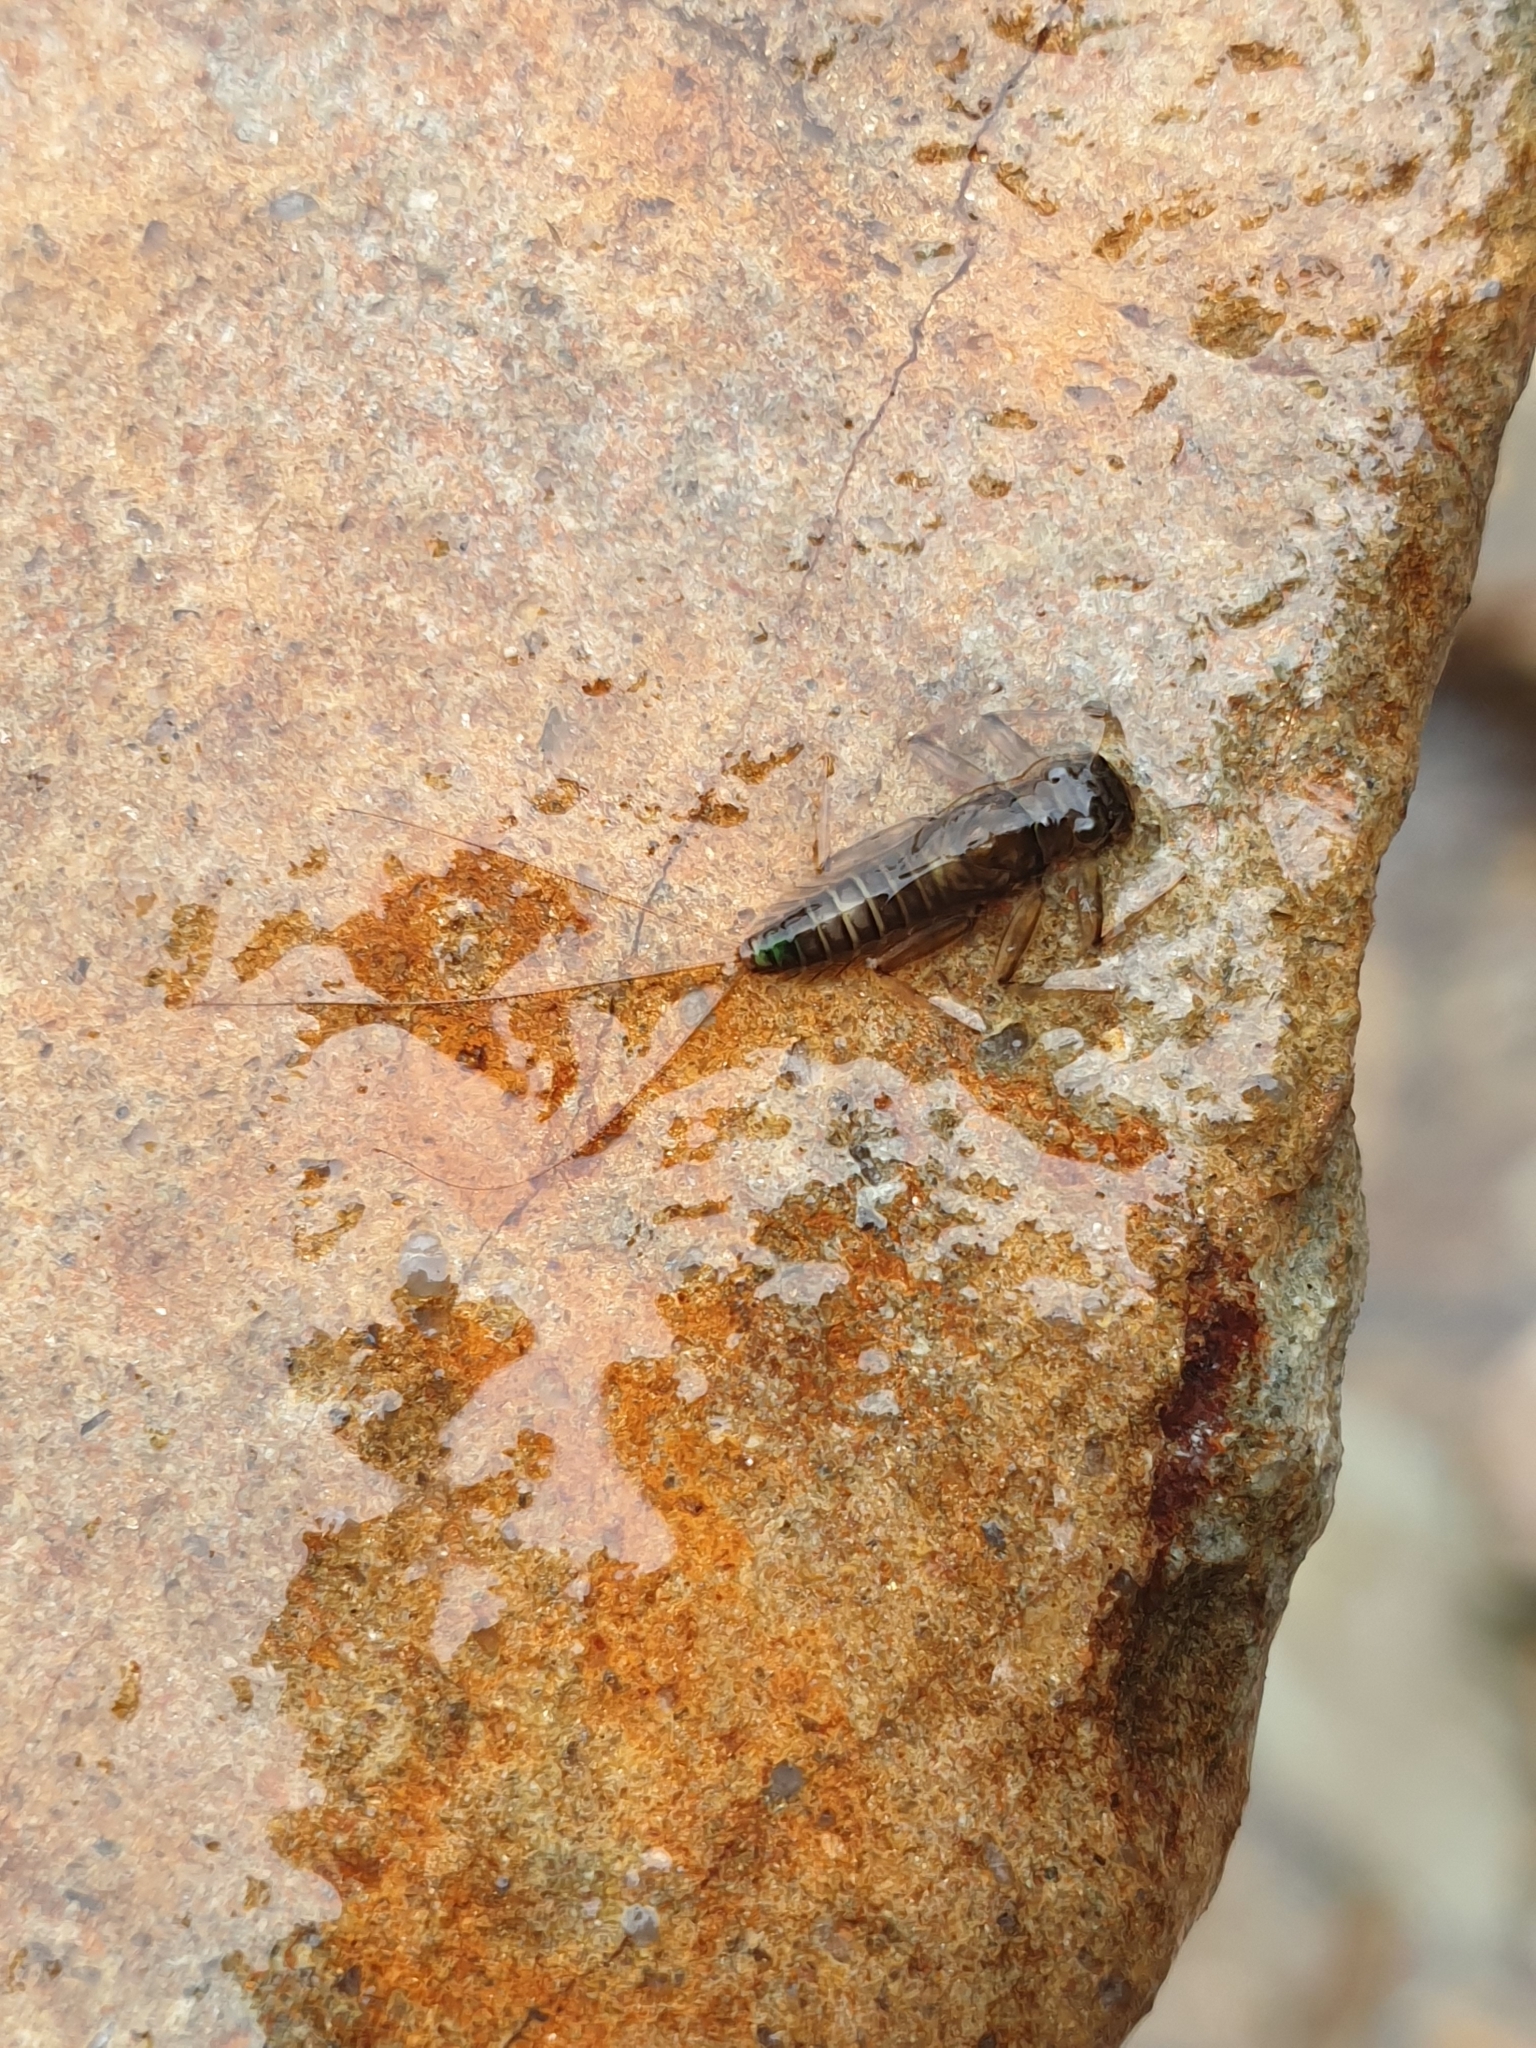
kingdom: Animalia
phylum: Arthropoda
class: Insecta
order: Ephemeroptera
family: Leptophlebiidae
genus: Deleatidium
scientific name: Deleatidium
